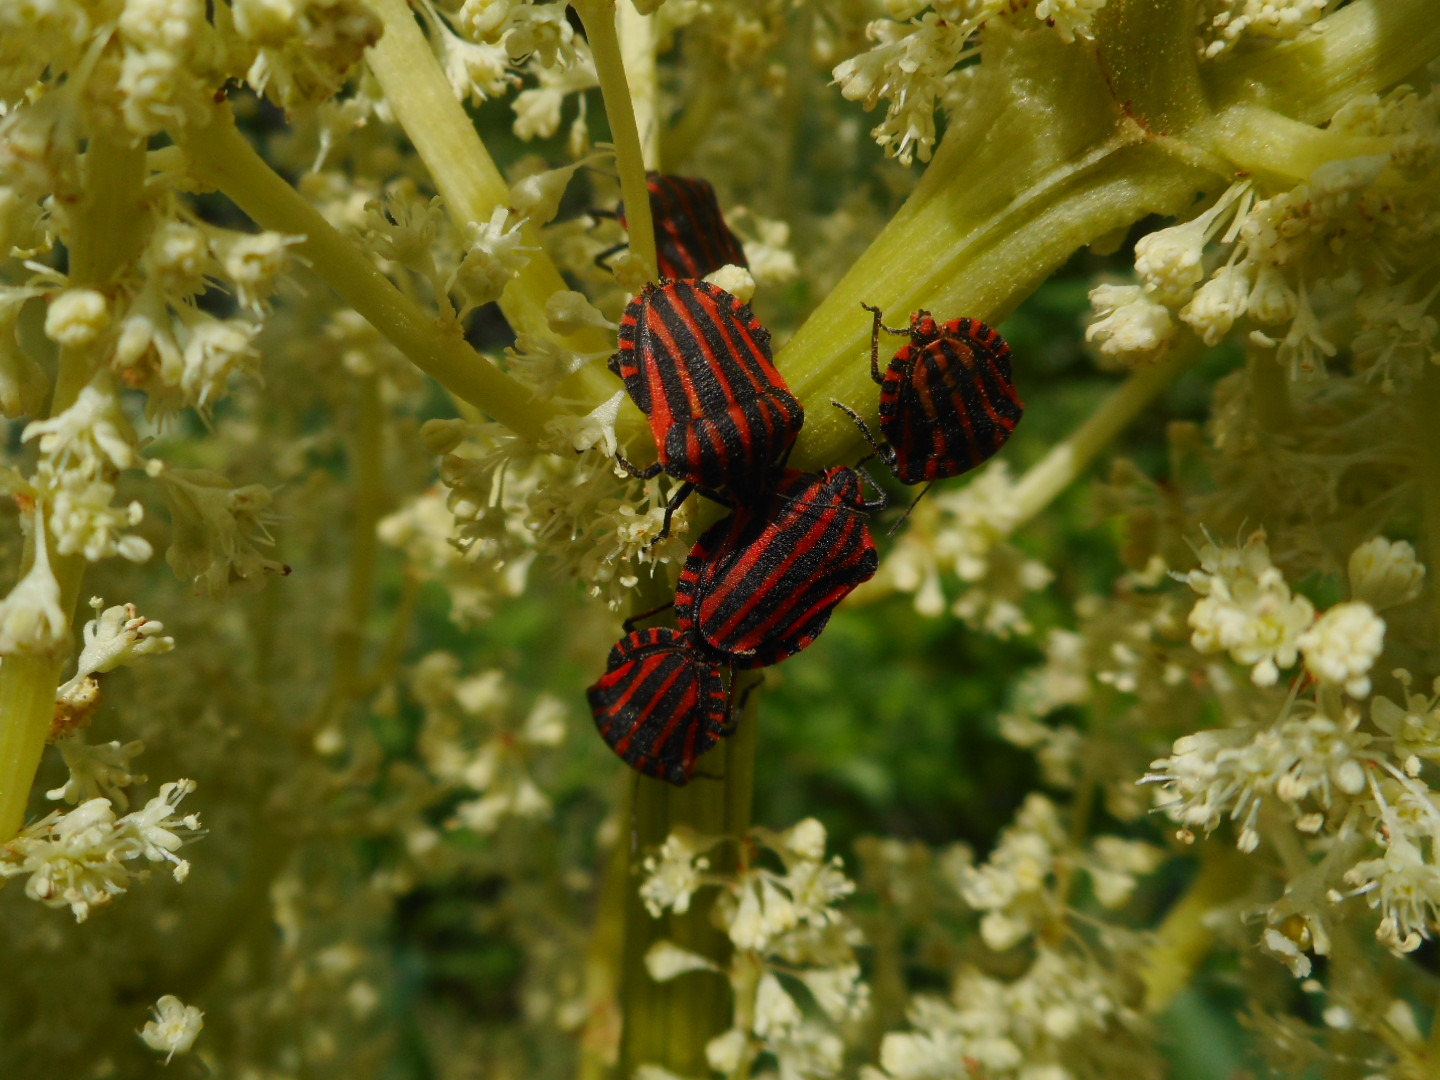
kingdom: Animalia
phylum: Arthropoda
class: Insecta
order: Hemiptera
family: Pentatomidae
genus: Graphosoma
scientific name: Graphosoma italicum
